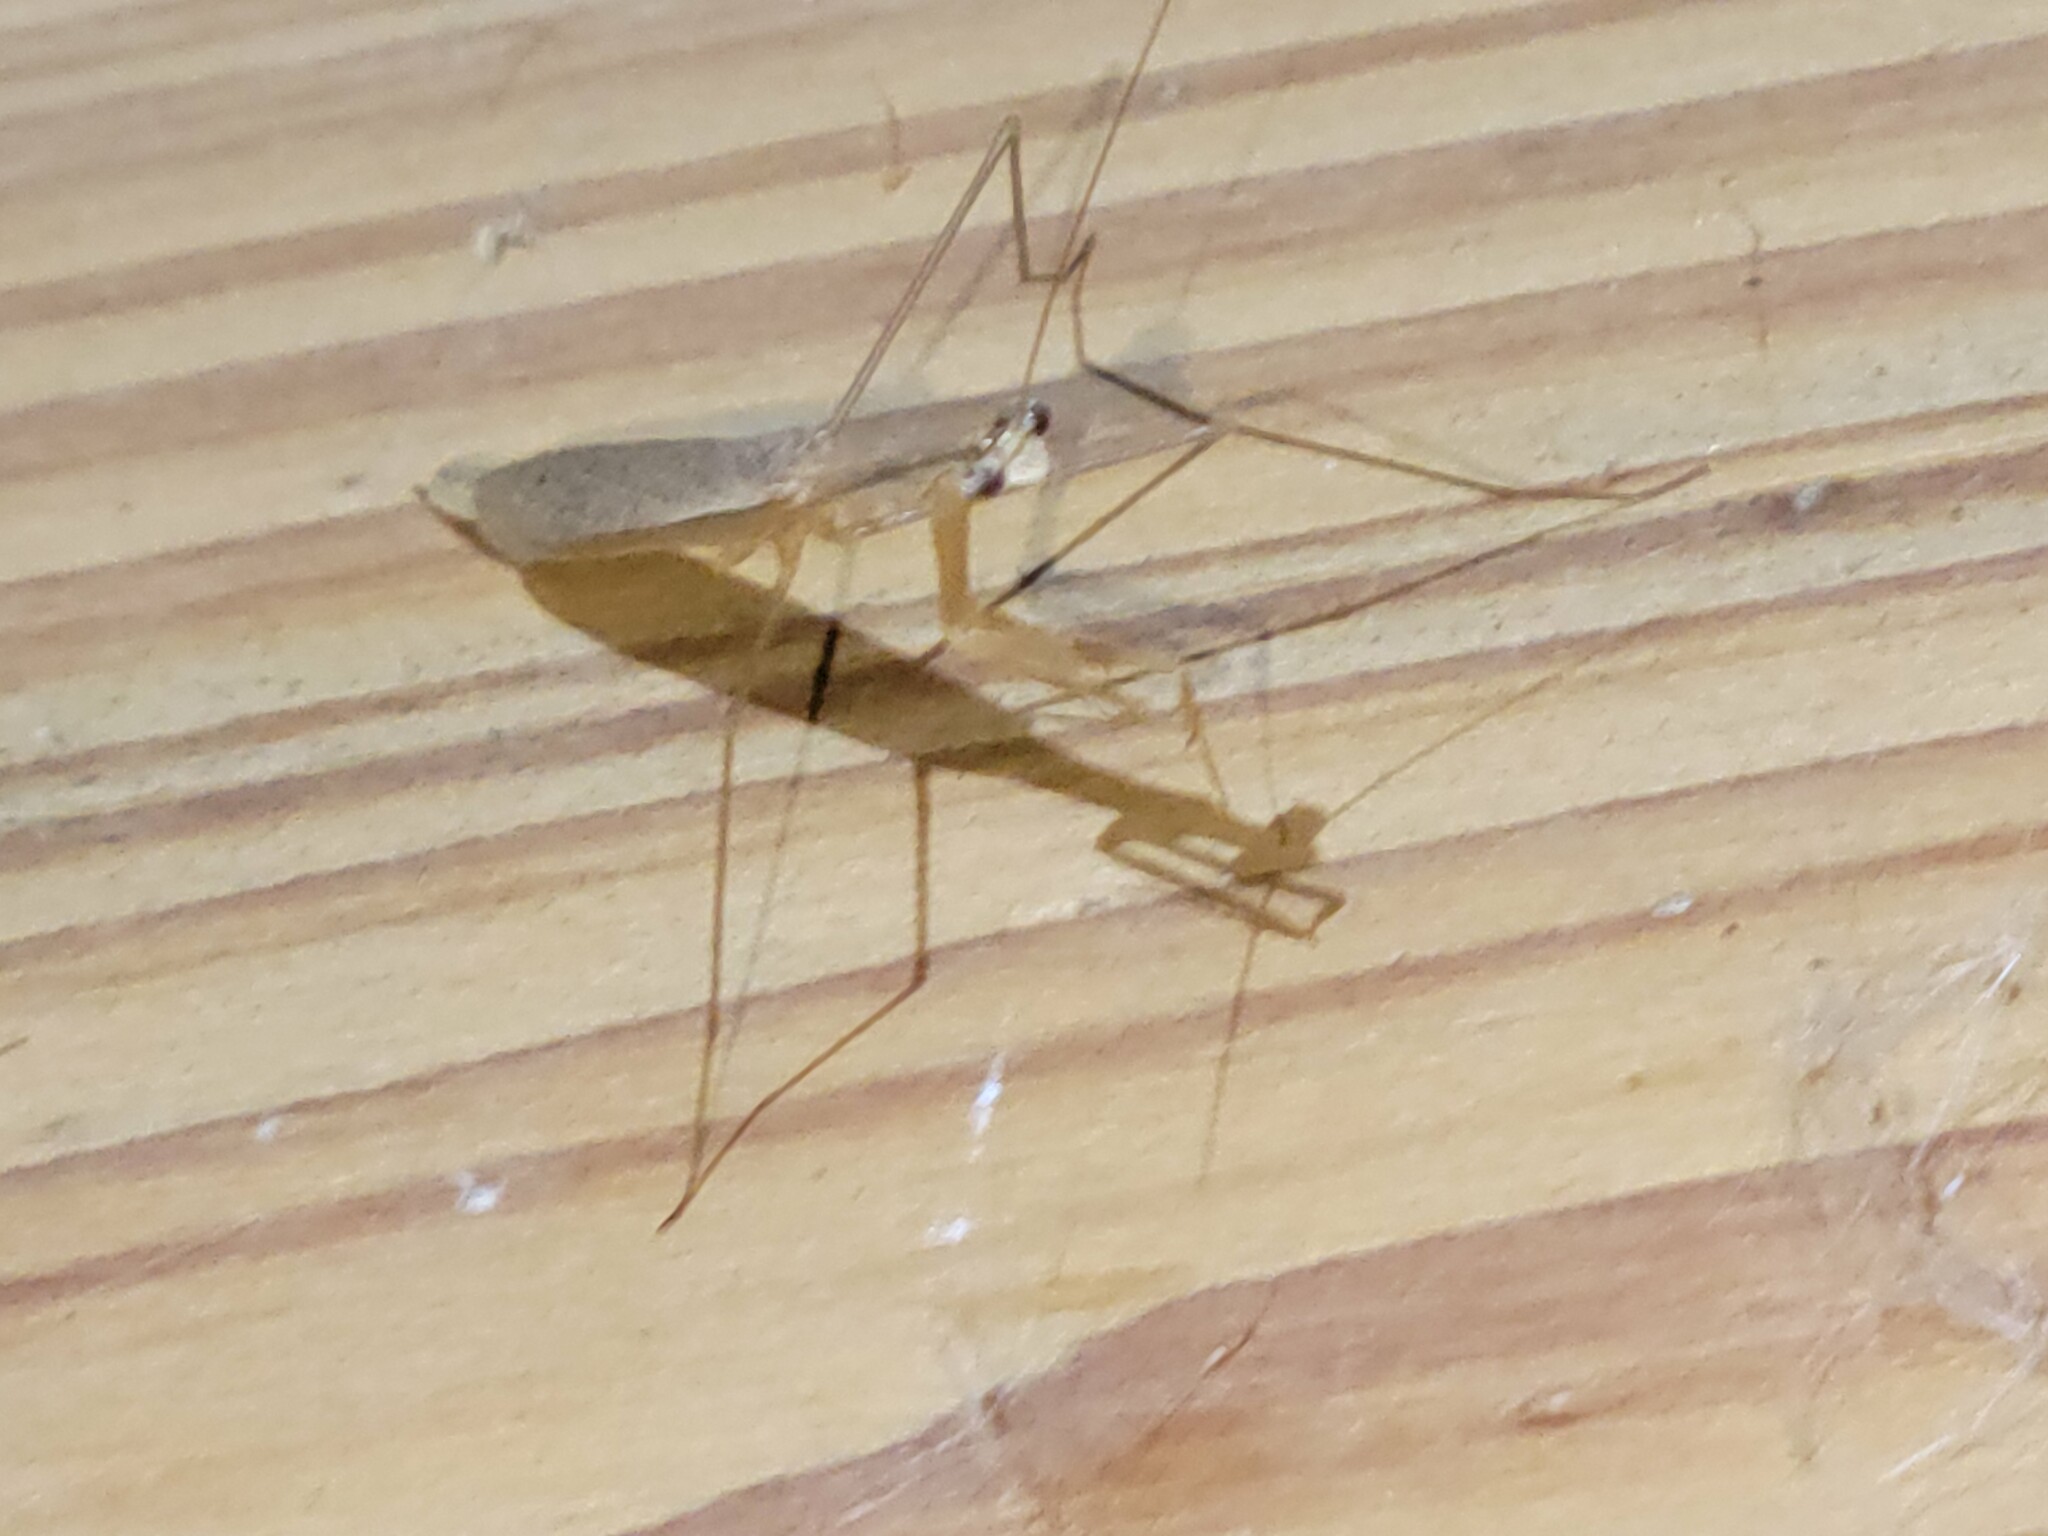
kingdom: Animalia
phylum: Arthropoda
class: Insecta
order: Mantodea
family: Thespidae
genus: Bistanta
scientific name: Bistanta campestris
